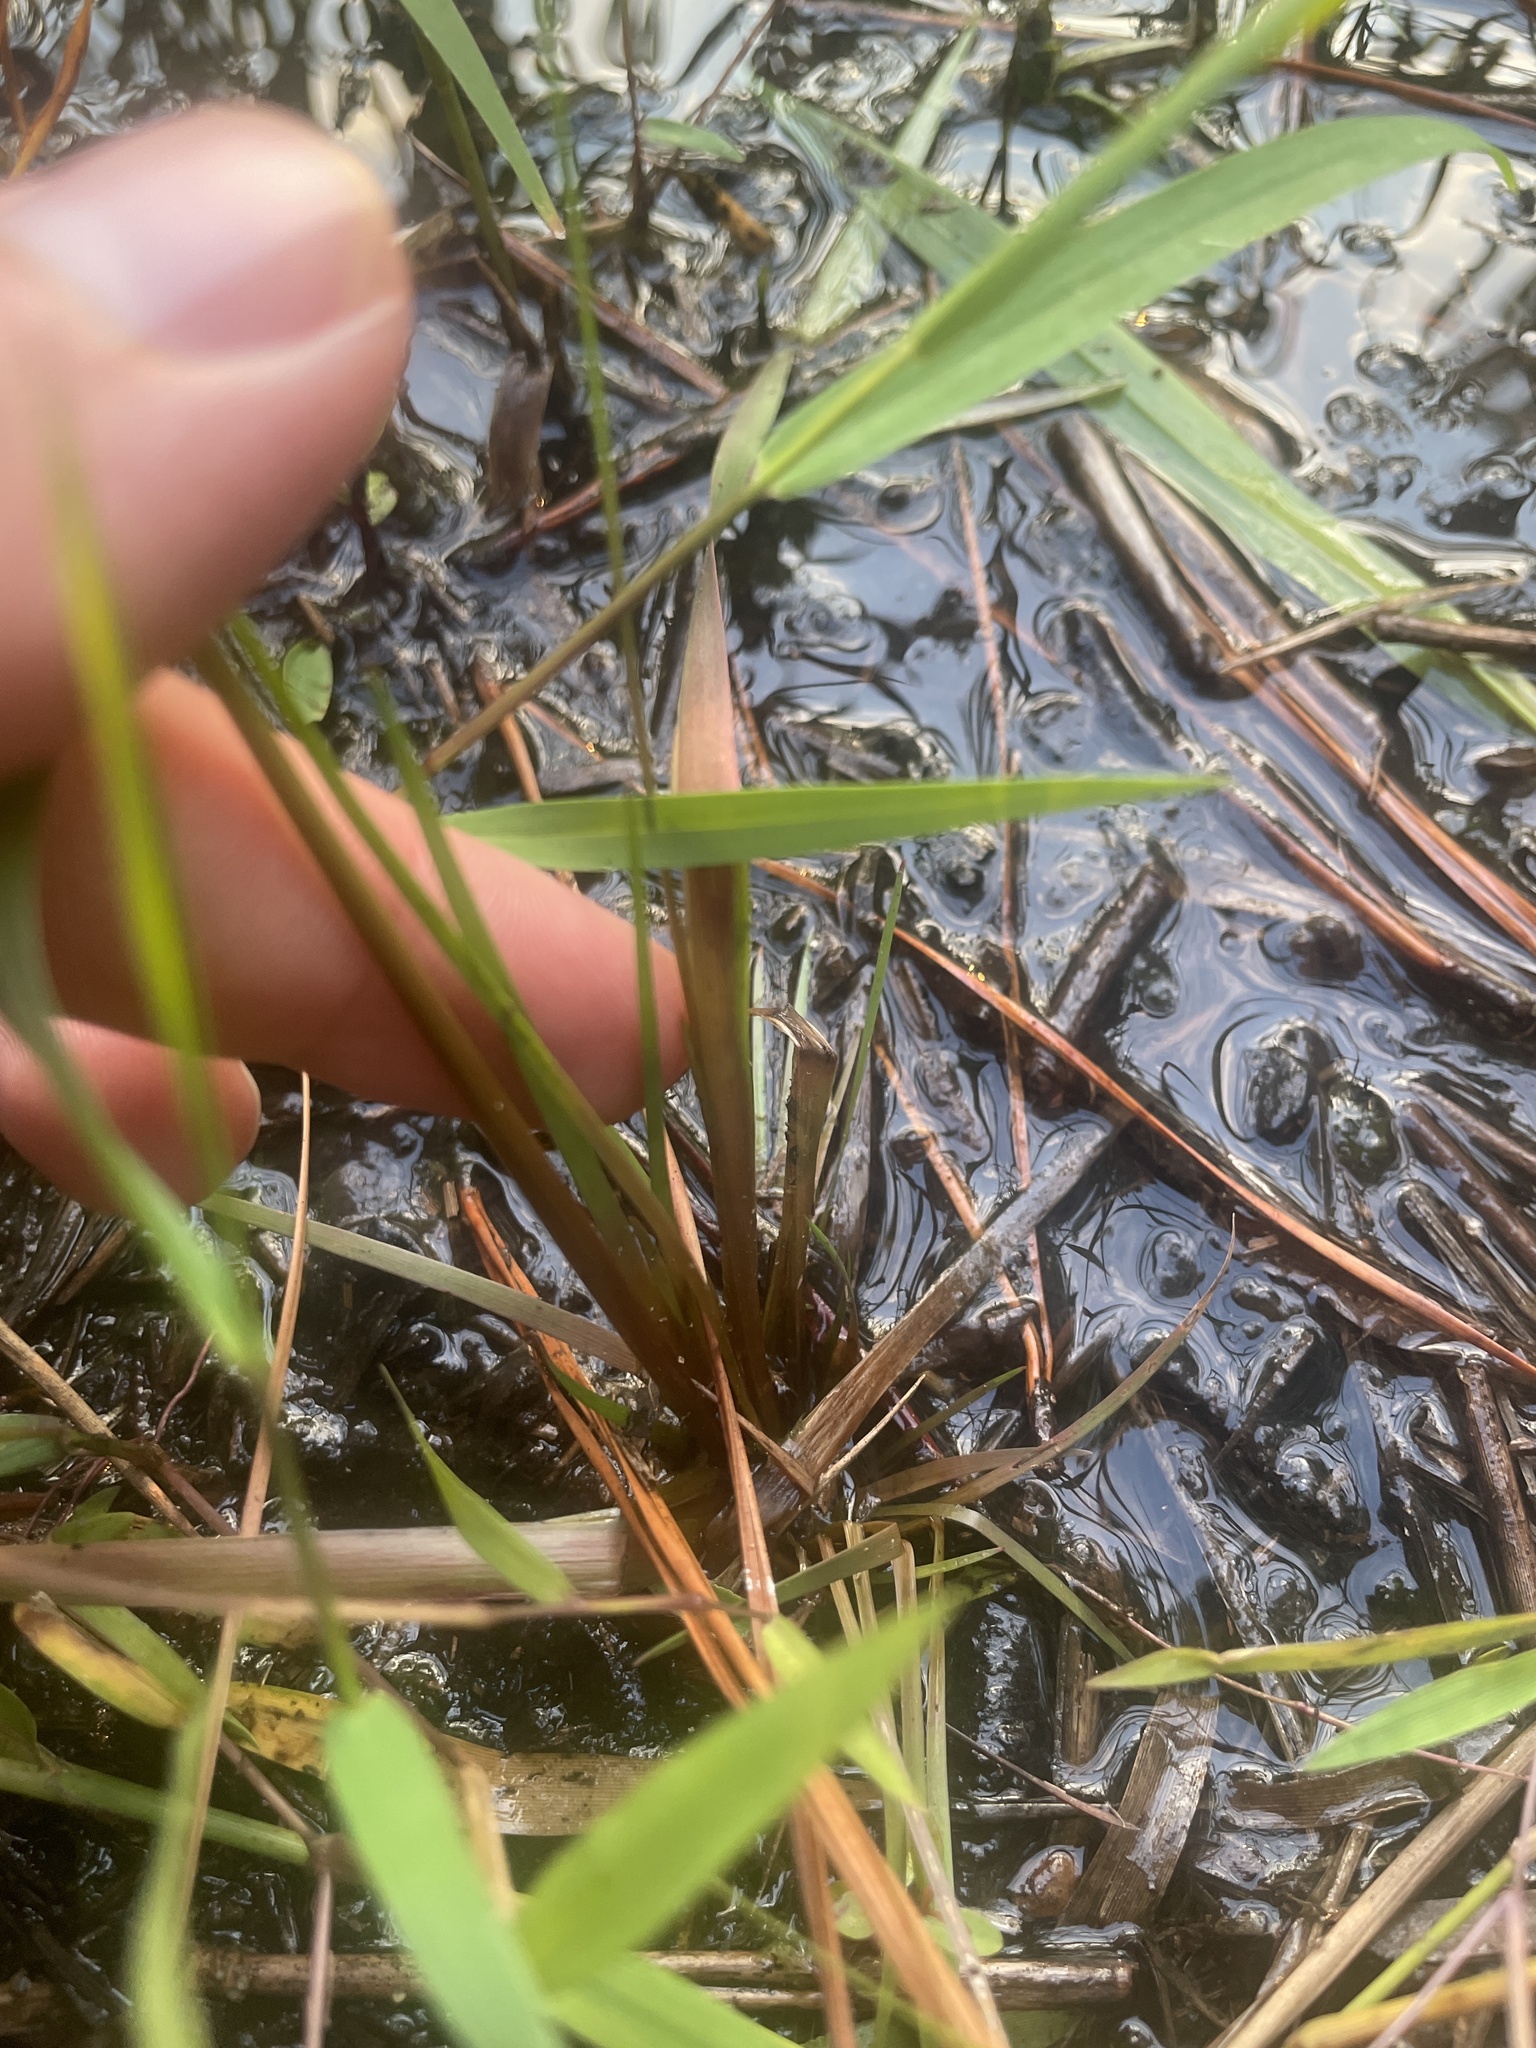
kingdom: Plantae
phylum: Tracheophyta
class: Liliopsida
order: Poales
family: Xyridaceae
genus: Xyris
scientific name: Xyris smalliana
